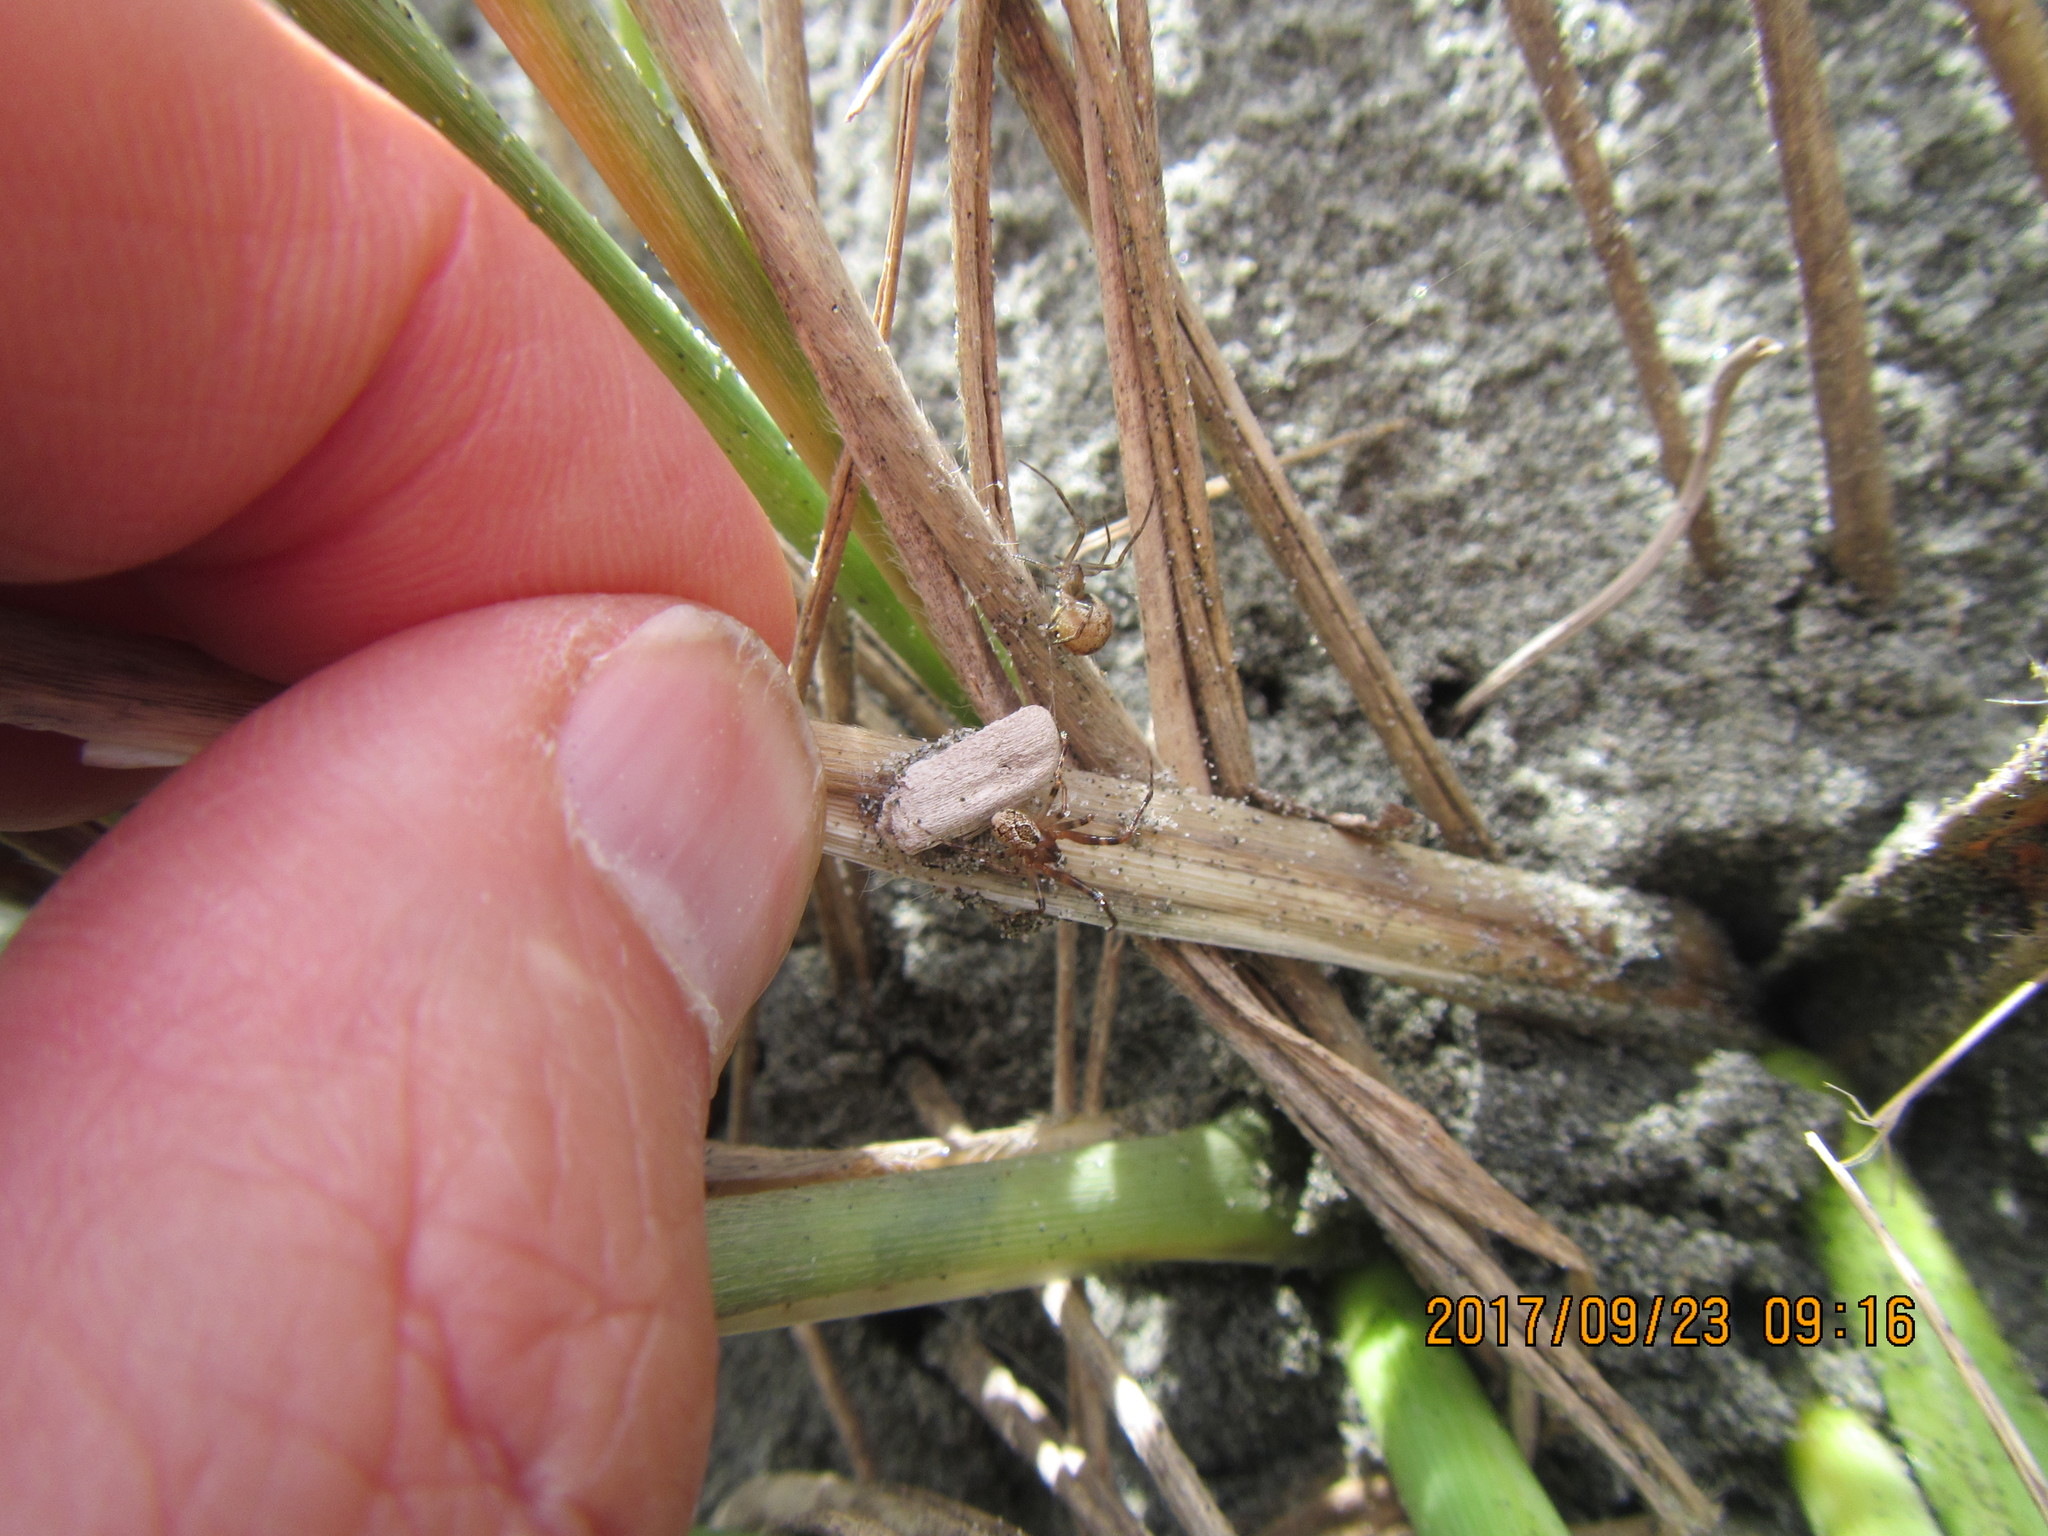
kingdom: Animalia
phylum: Arthropoda
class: Arachnida
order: Araneae
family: Theridiidae
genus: Cryptachaea
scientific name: Cryptachaea veruculata
